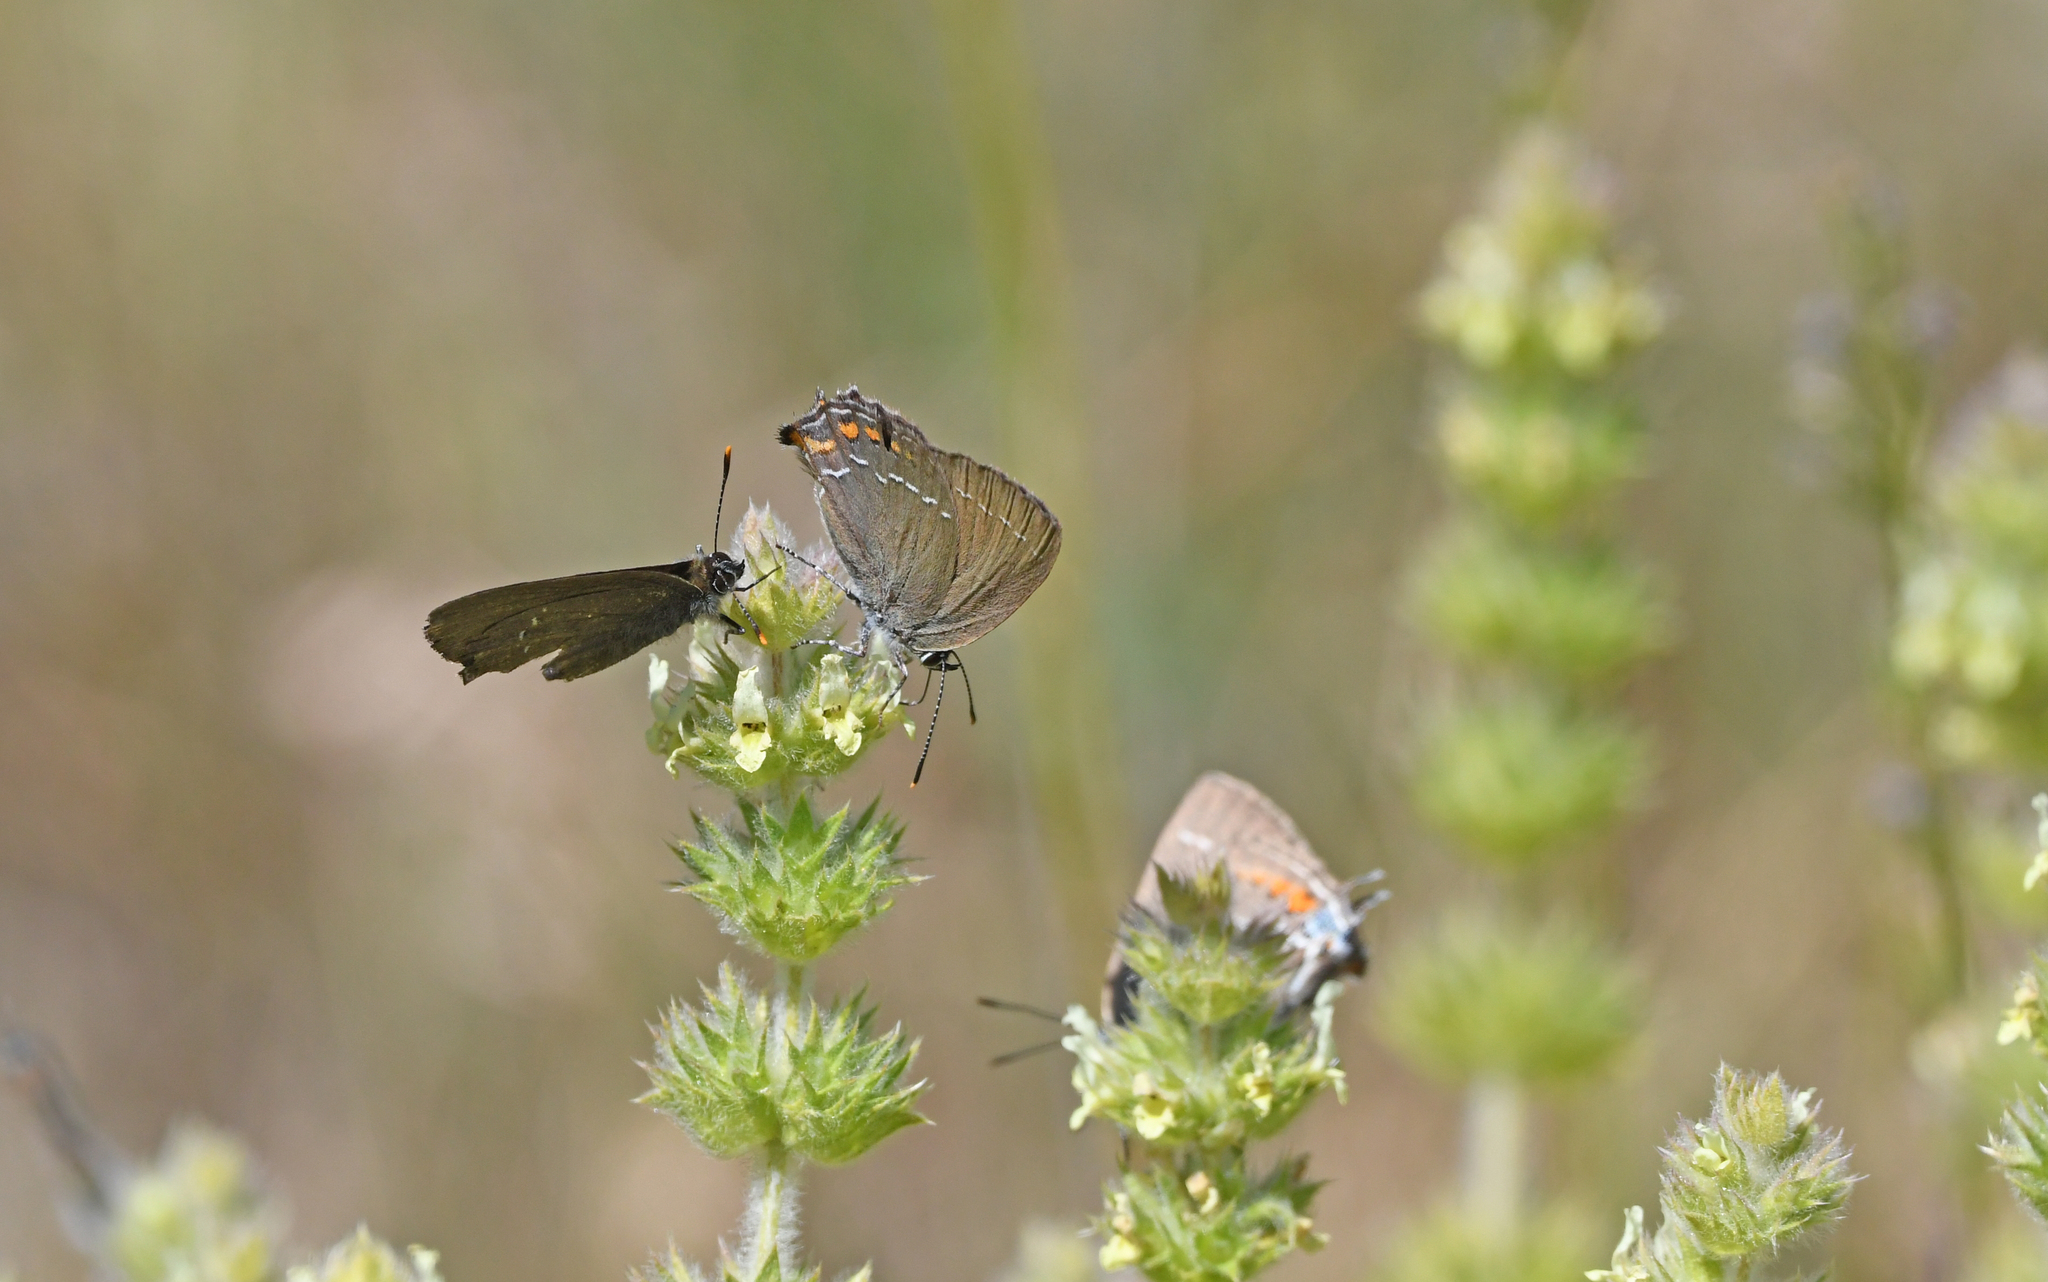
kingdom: Animalia
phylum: Arthropoda
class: Insecta
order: Lepidoptera
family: Lycaenidae
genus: Nordmannia
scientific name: Nordmannia ilicis
